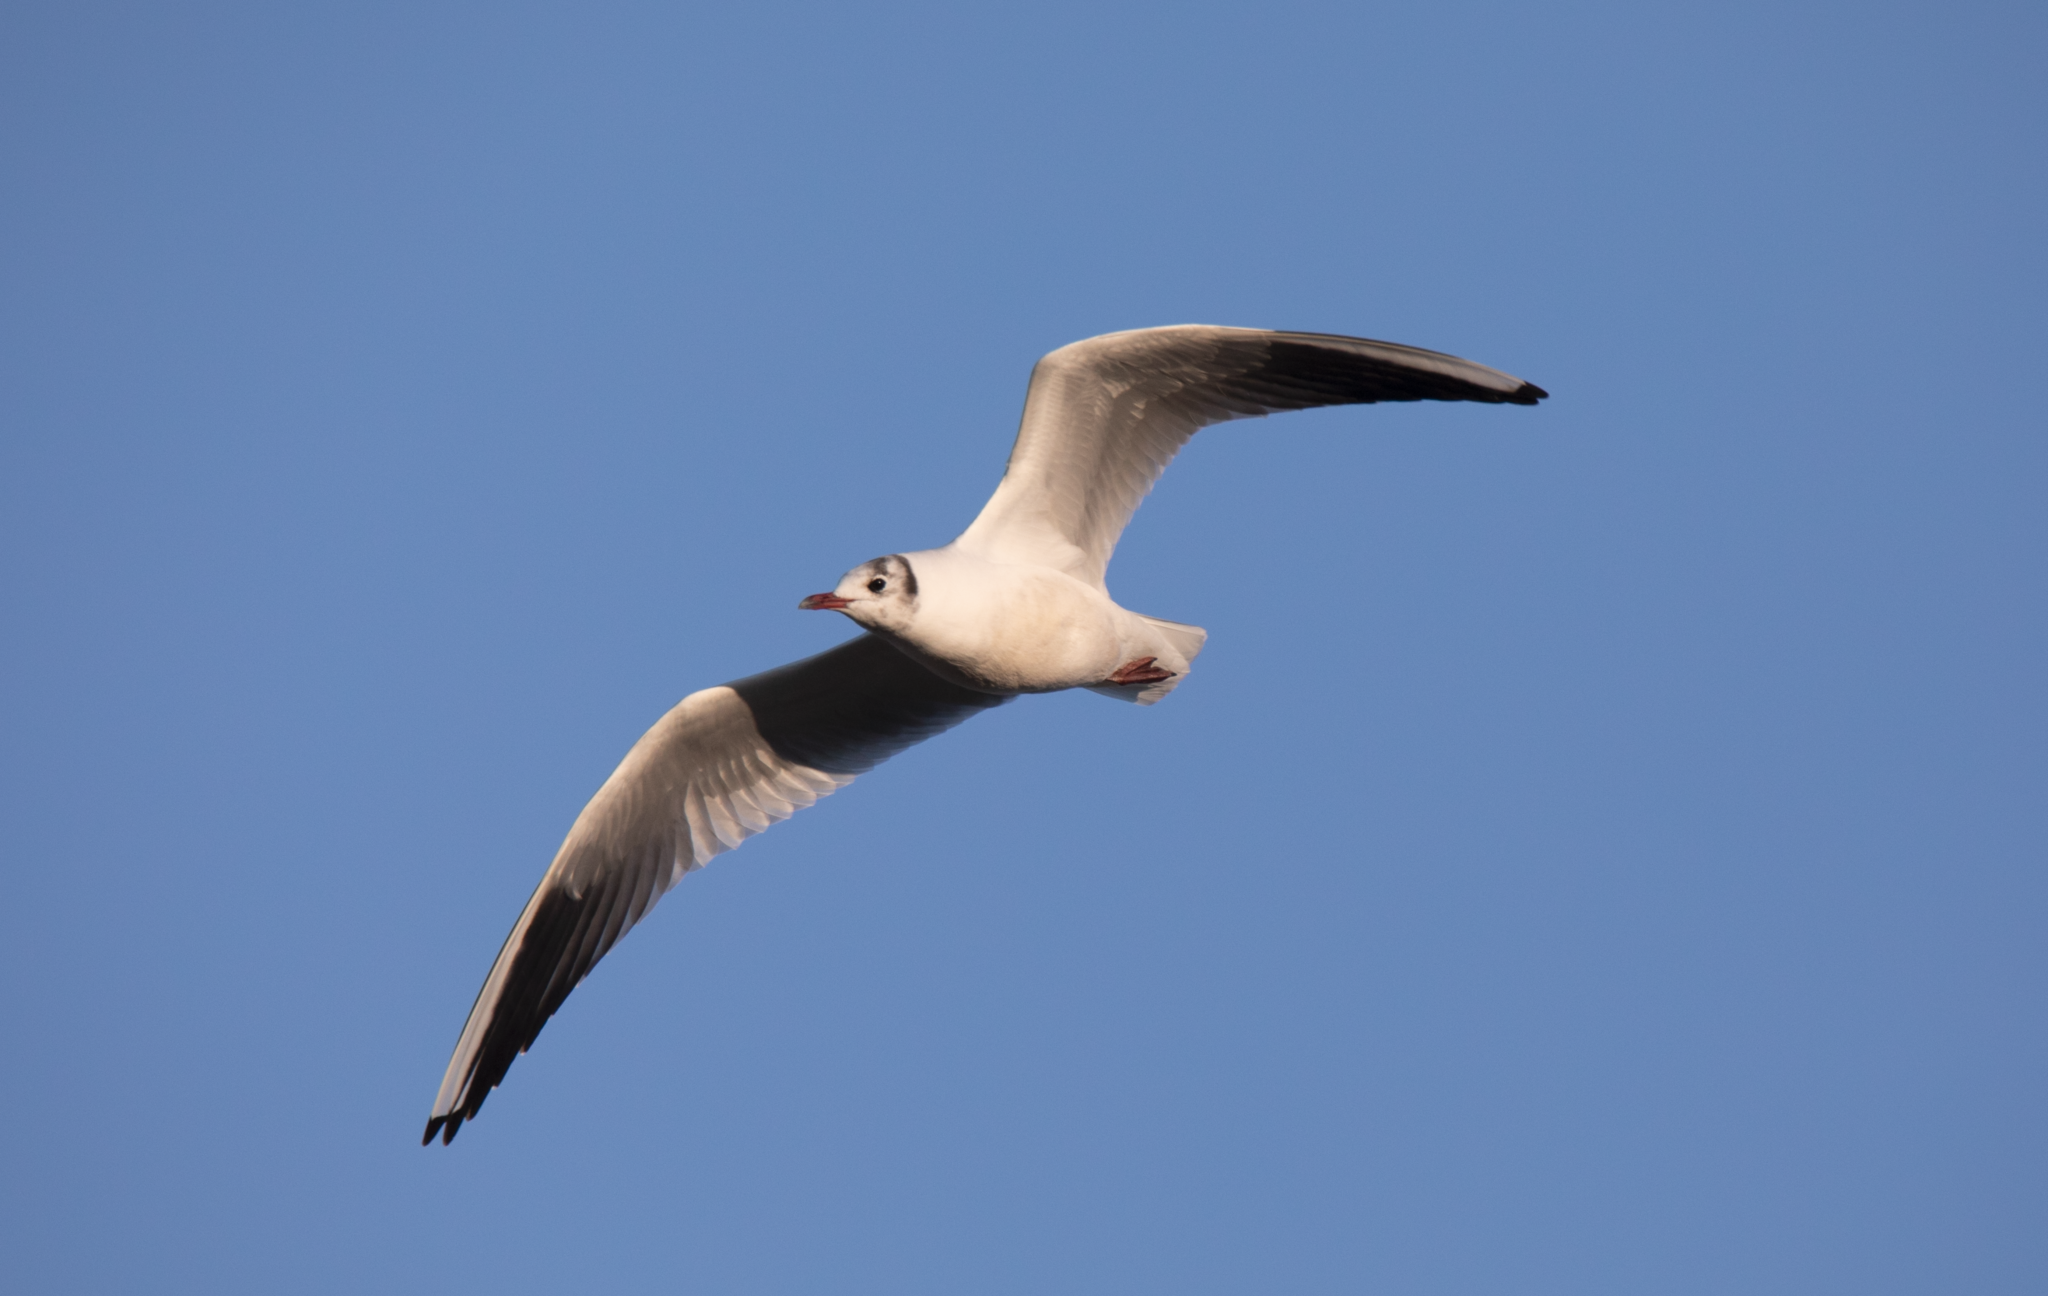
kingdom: Animalia
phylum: Chordata
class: Aves
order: Charadriiformes
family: Laridae
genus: Chroicocephalus
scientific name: Chroicocephalus ridibundus
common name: Black-headed gull
